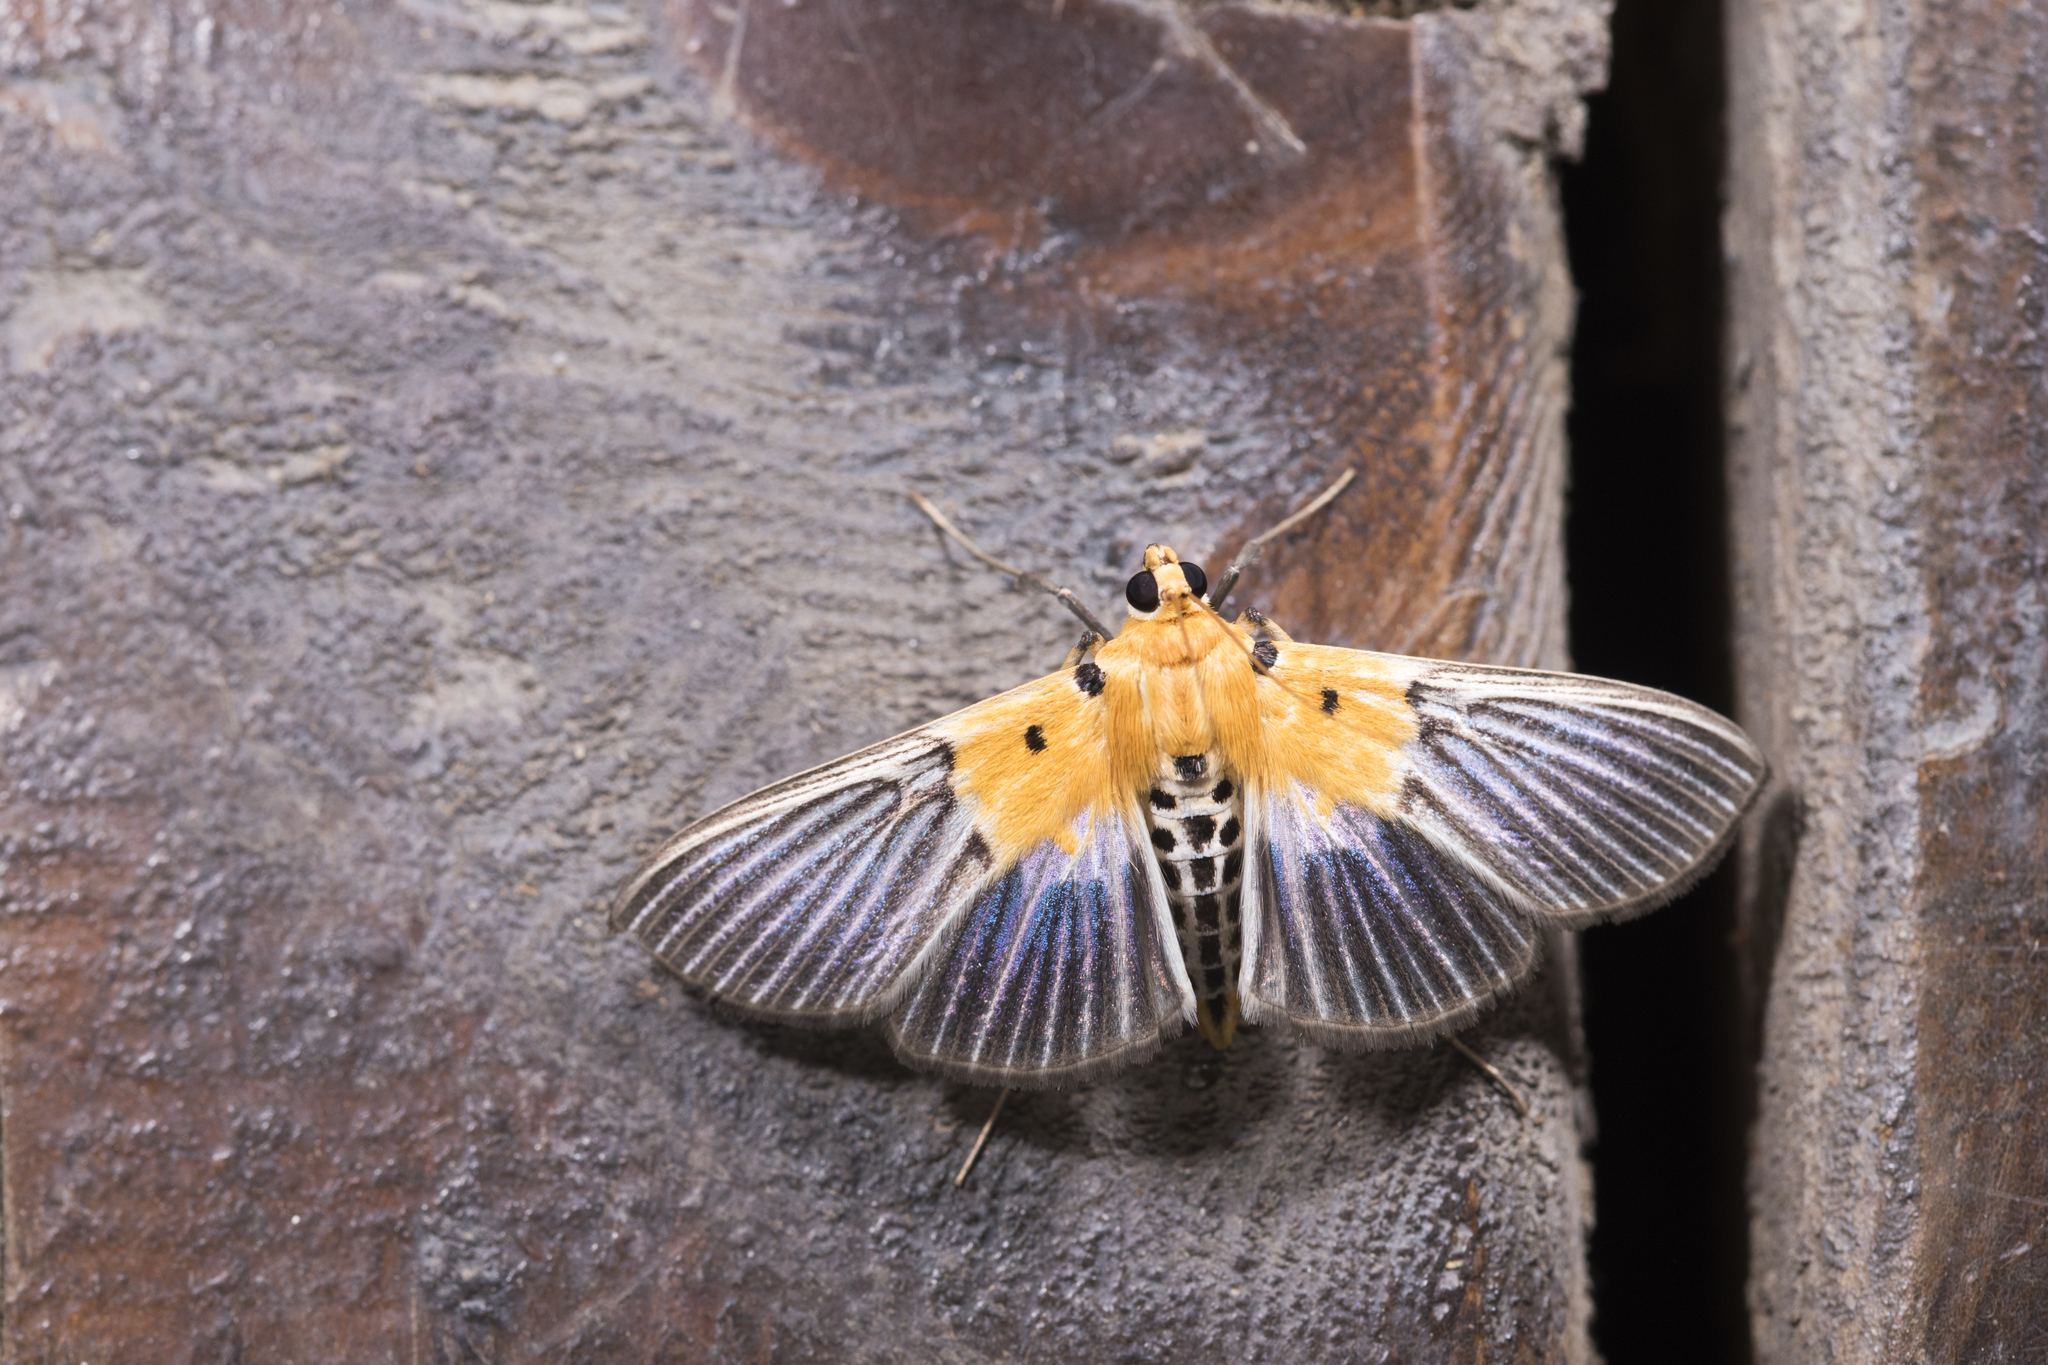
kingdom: Animalia
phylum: Arthropoda
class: Insecta
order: Lepidoptera
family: Crambidae
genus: Nevrina
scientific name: Nevrina procopia
